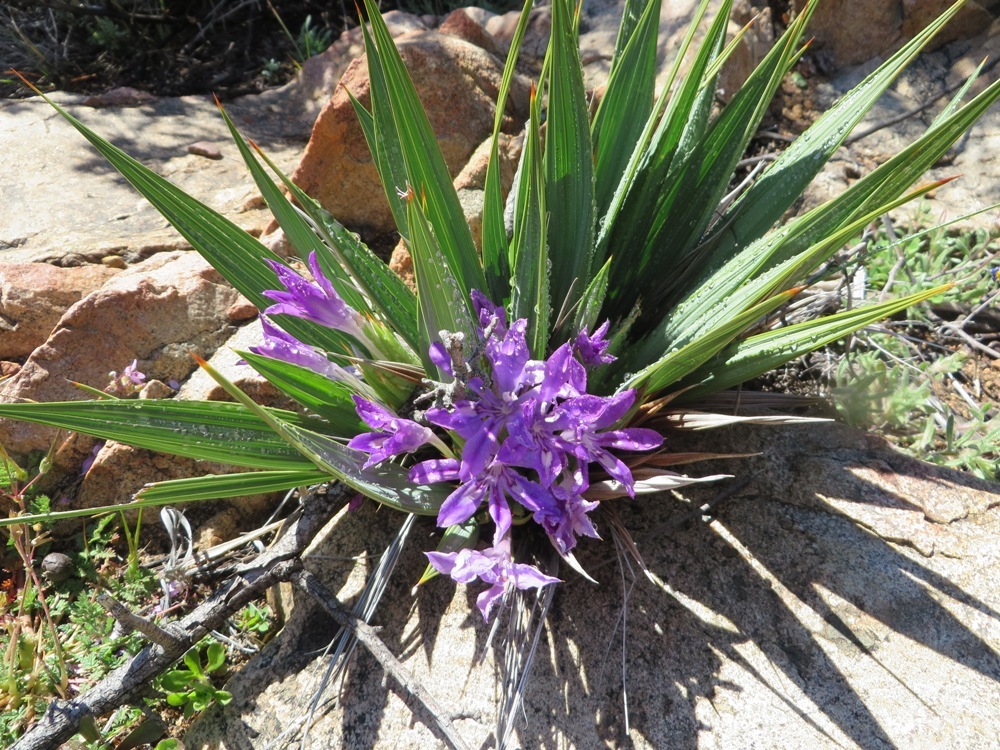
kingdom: Plantae
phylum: Tracheophyta
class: Liliopsida
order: Asparagales
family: Iridaceae
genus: Babiana
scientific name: Babiana dregei
